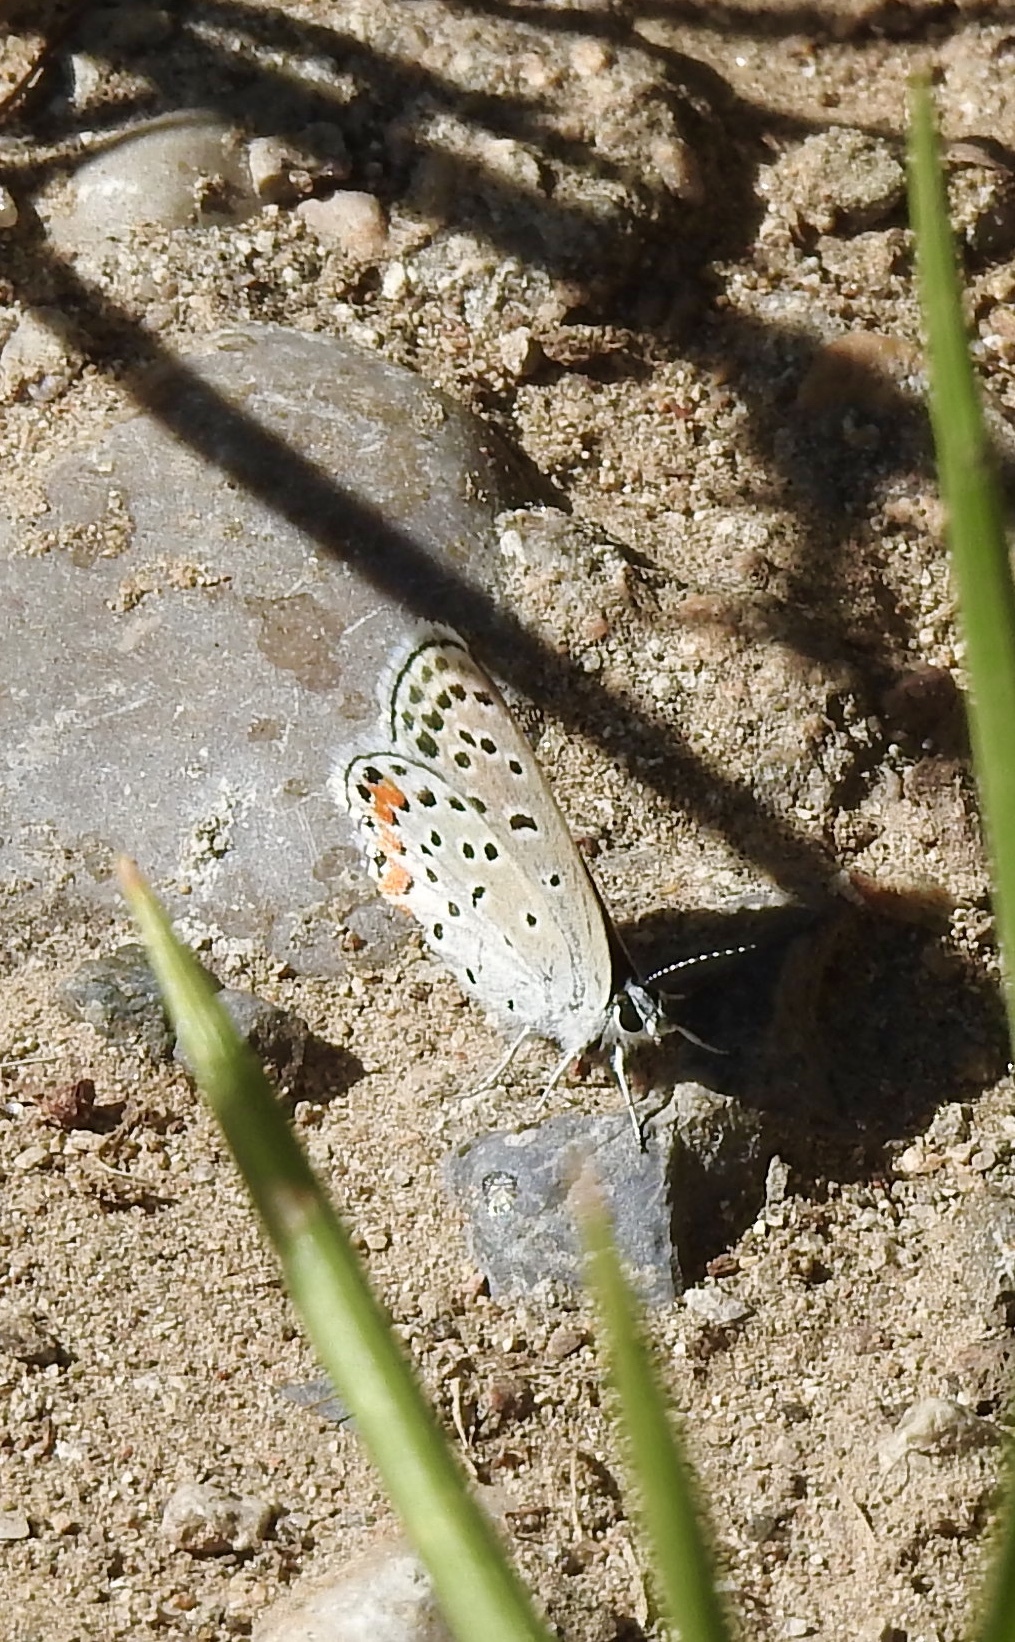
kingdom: Animalia
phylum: Arthropoda
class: Insecta
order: Lepidoptera
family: Lycaenidae
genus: Icaricia
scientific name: Icaricia lupini
